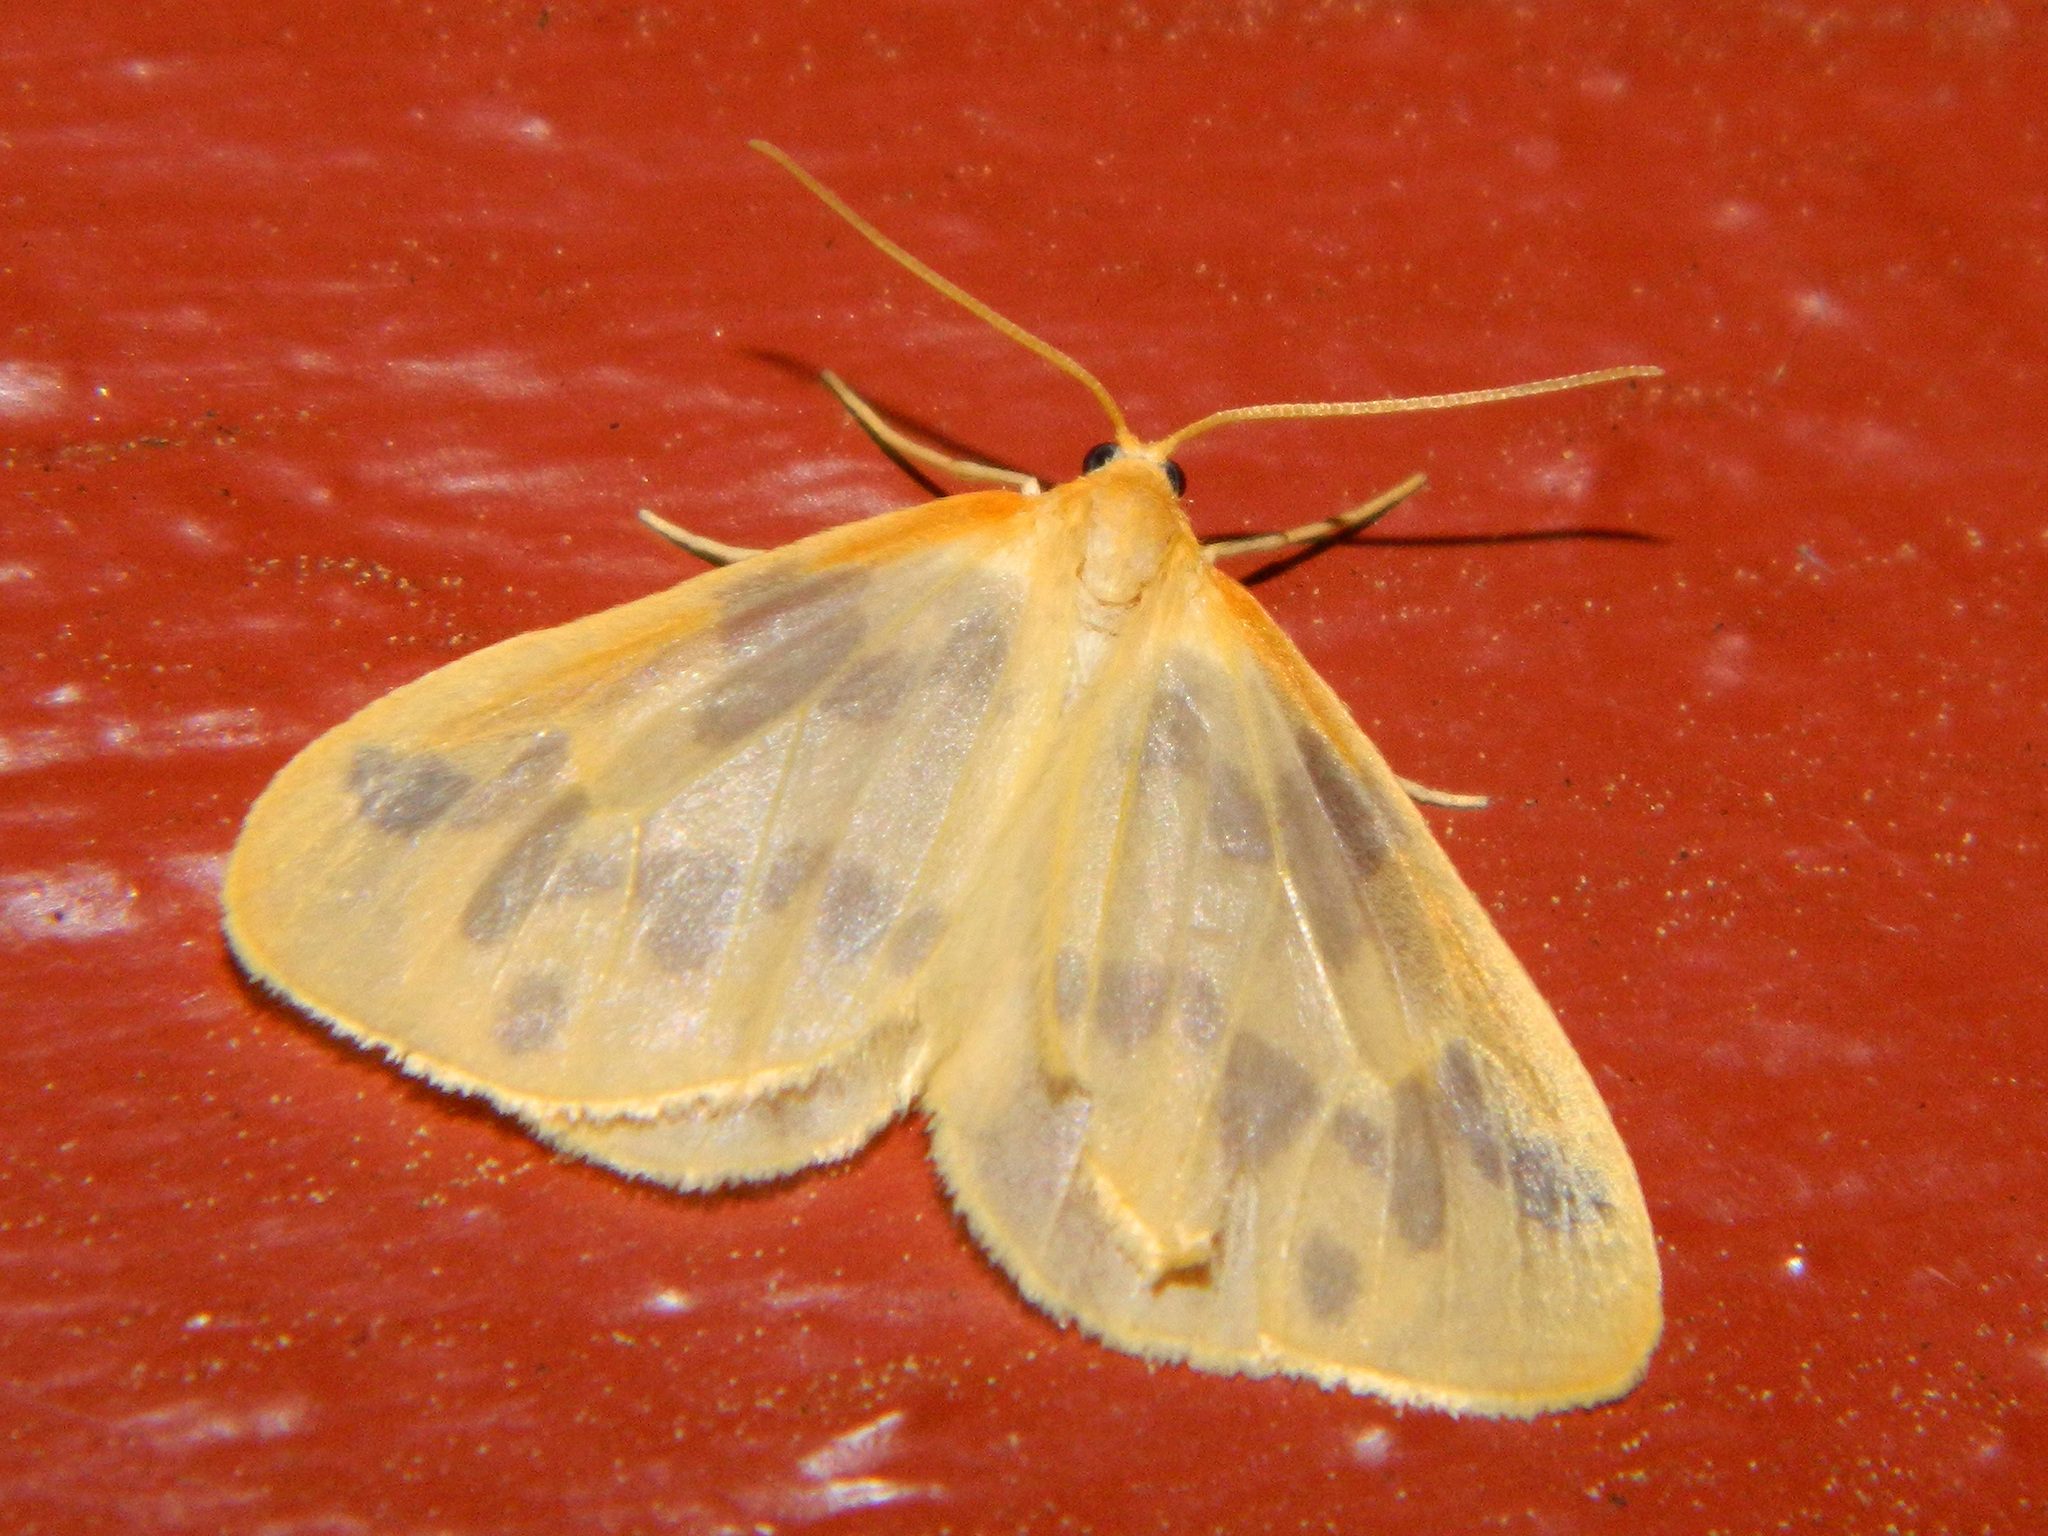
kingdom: Animalia
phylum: Arthropoda
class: Insecta
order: Lepidoptera
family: Geometridae
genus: Eubaphe
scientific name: Eubaphe mendica
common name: Beggar
